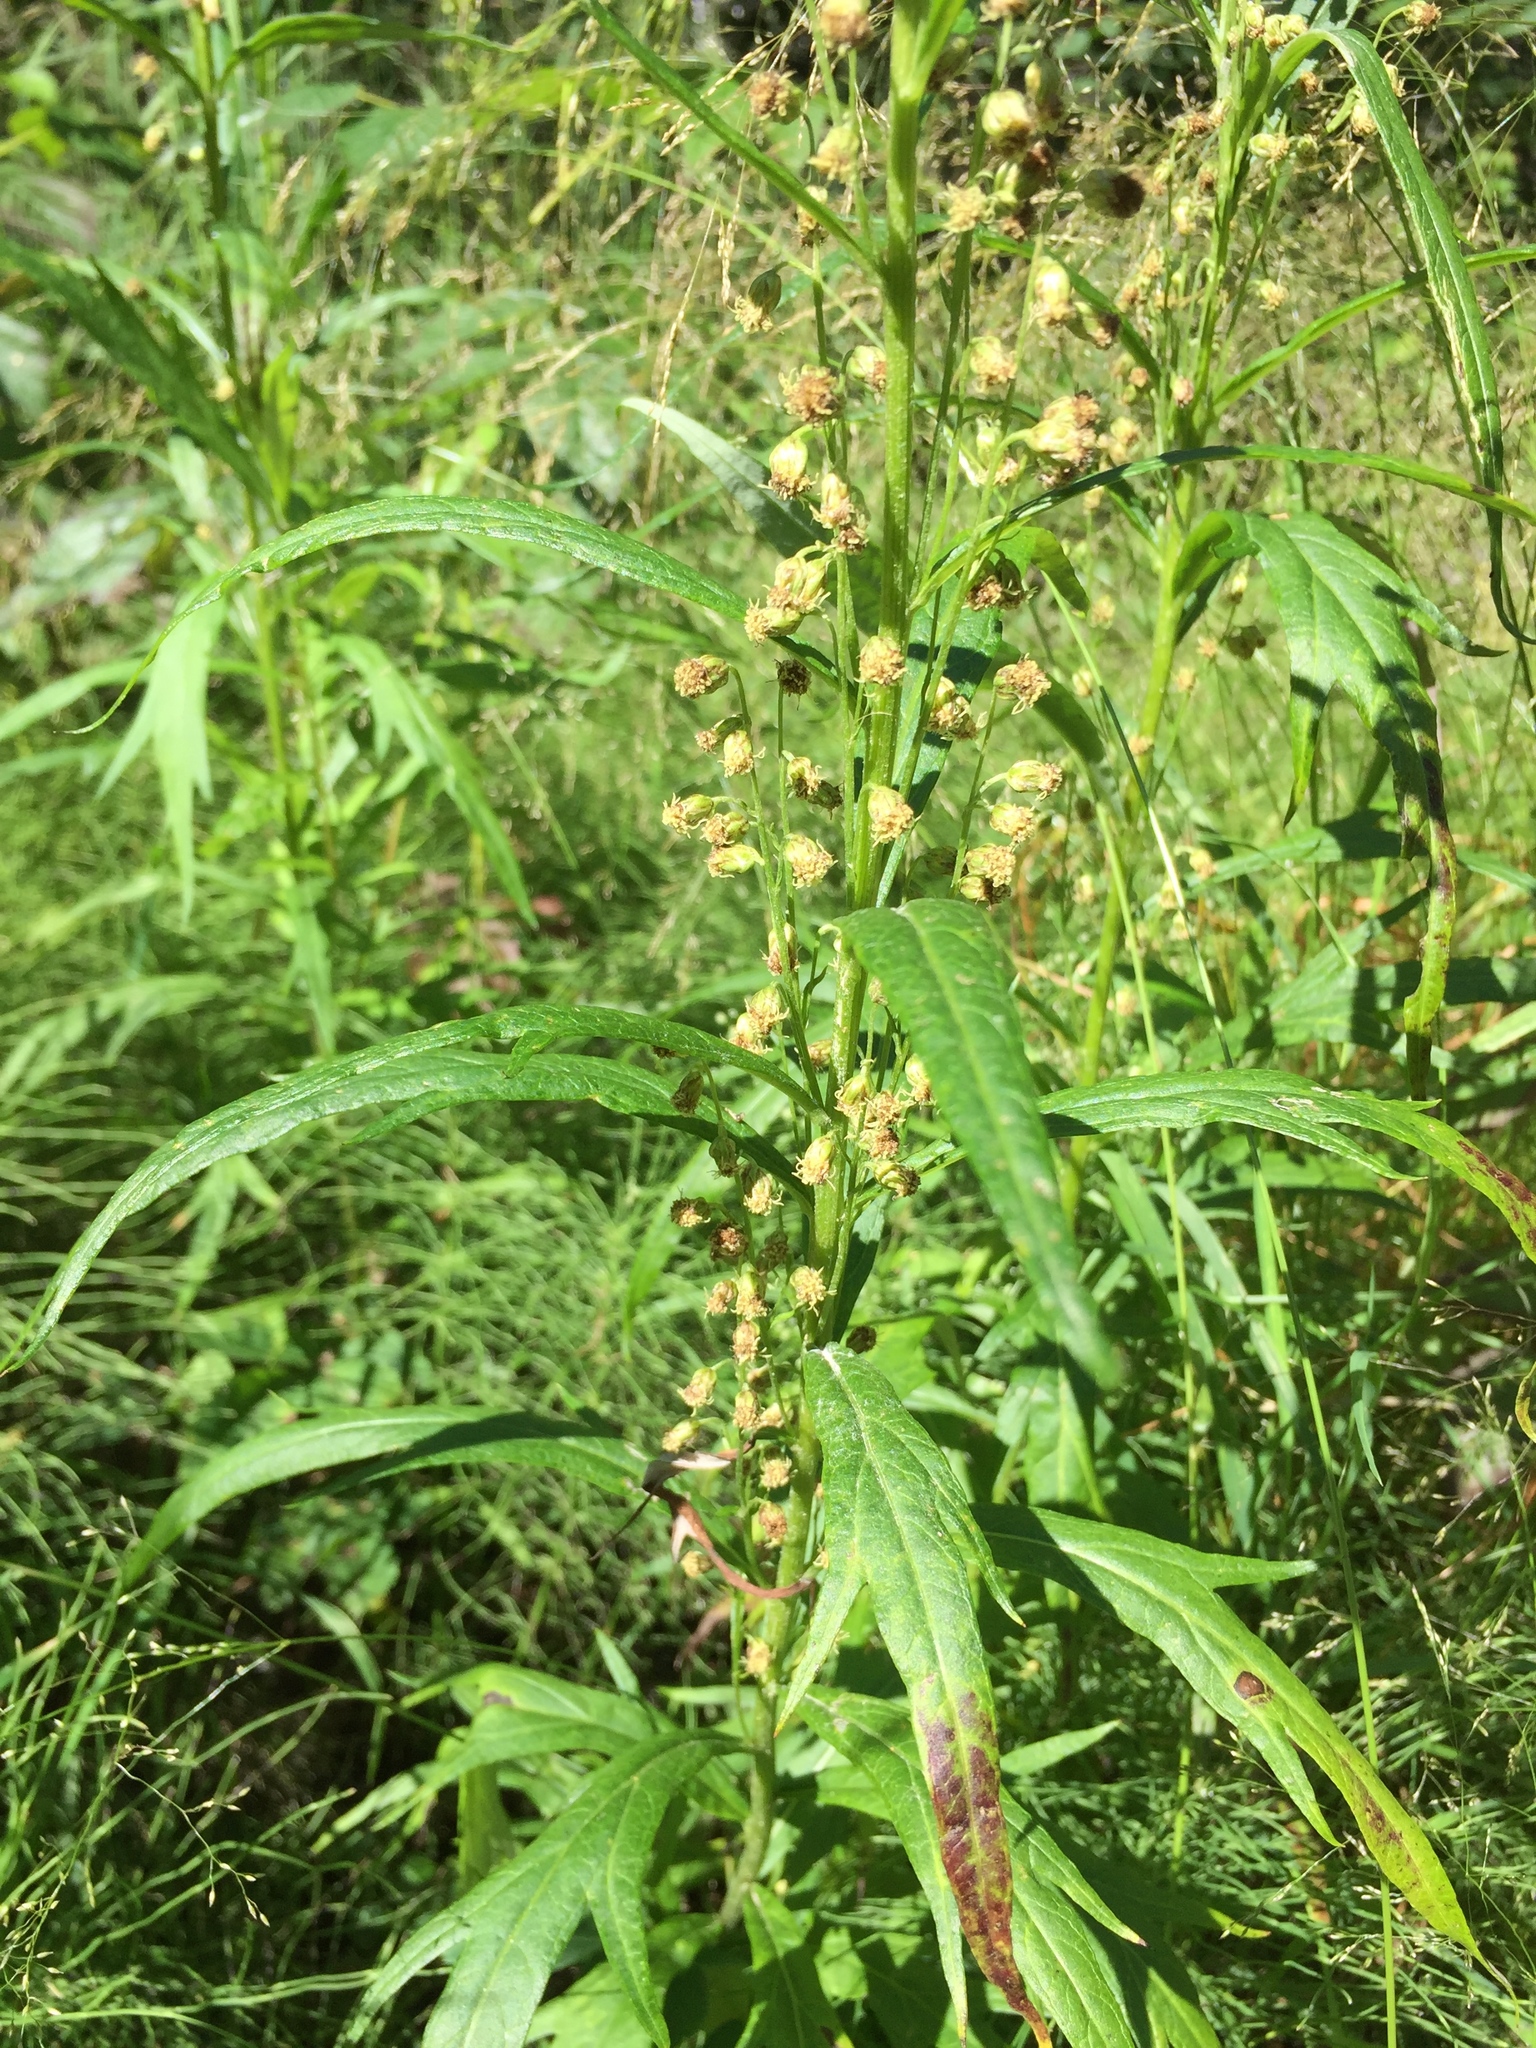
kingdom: Plantae
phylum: Tracheophyta
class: Magnoliopsida
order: Asterales
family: Asteraceae
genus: Artemisia
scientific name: Artemisia tilesii
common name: Aleutian mugwort
